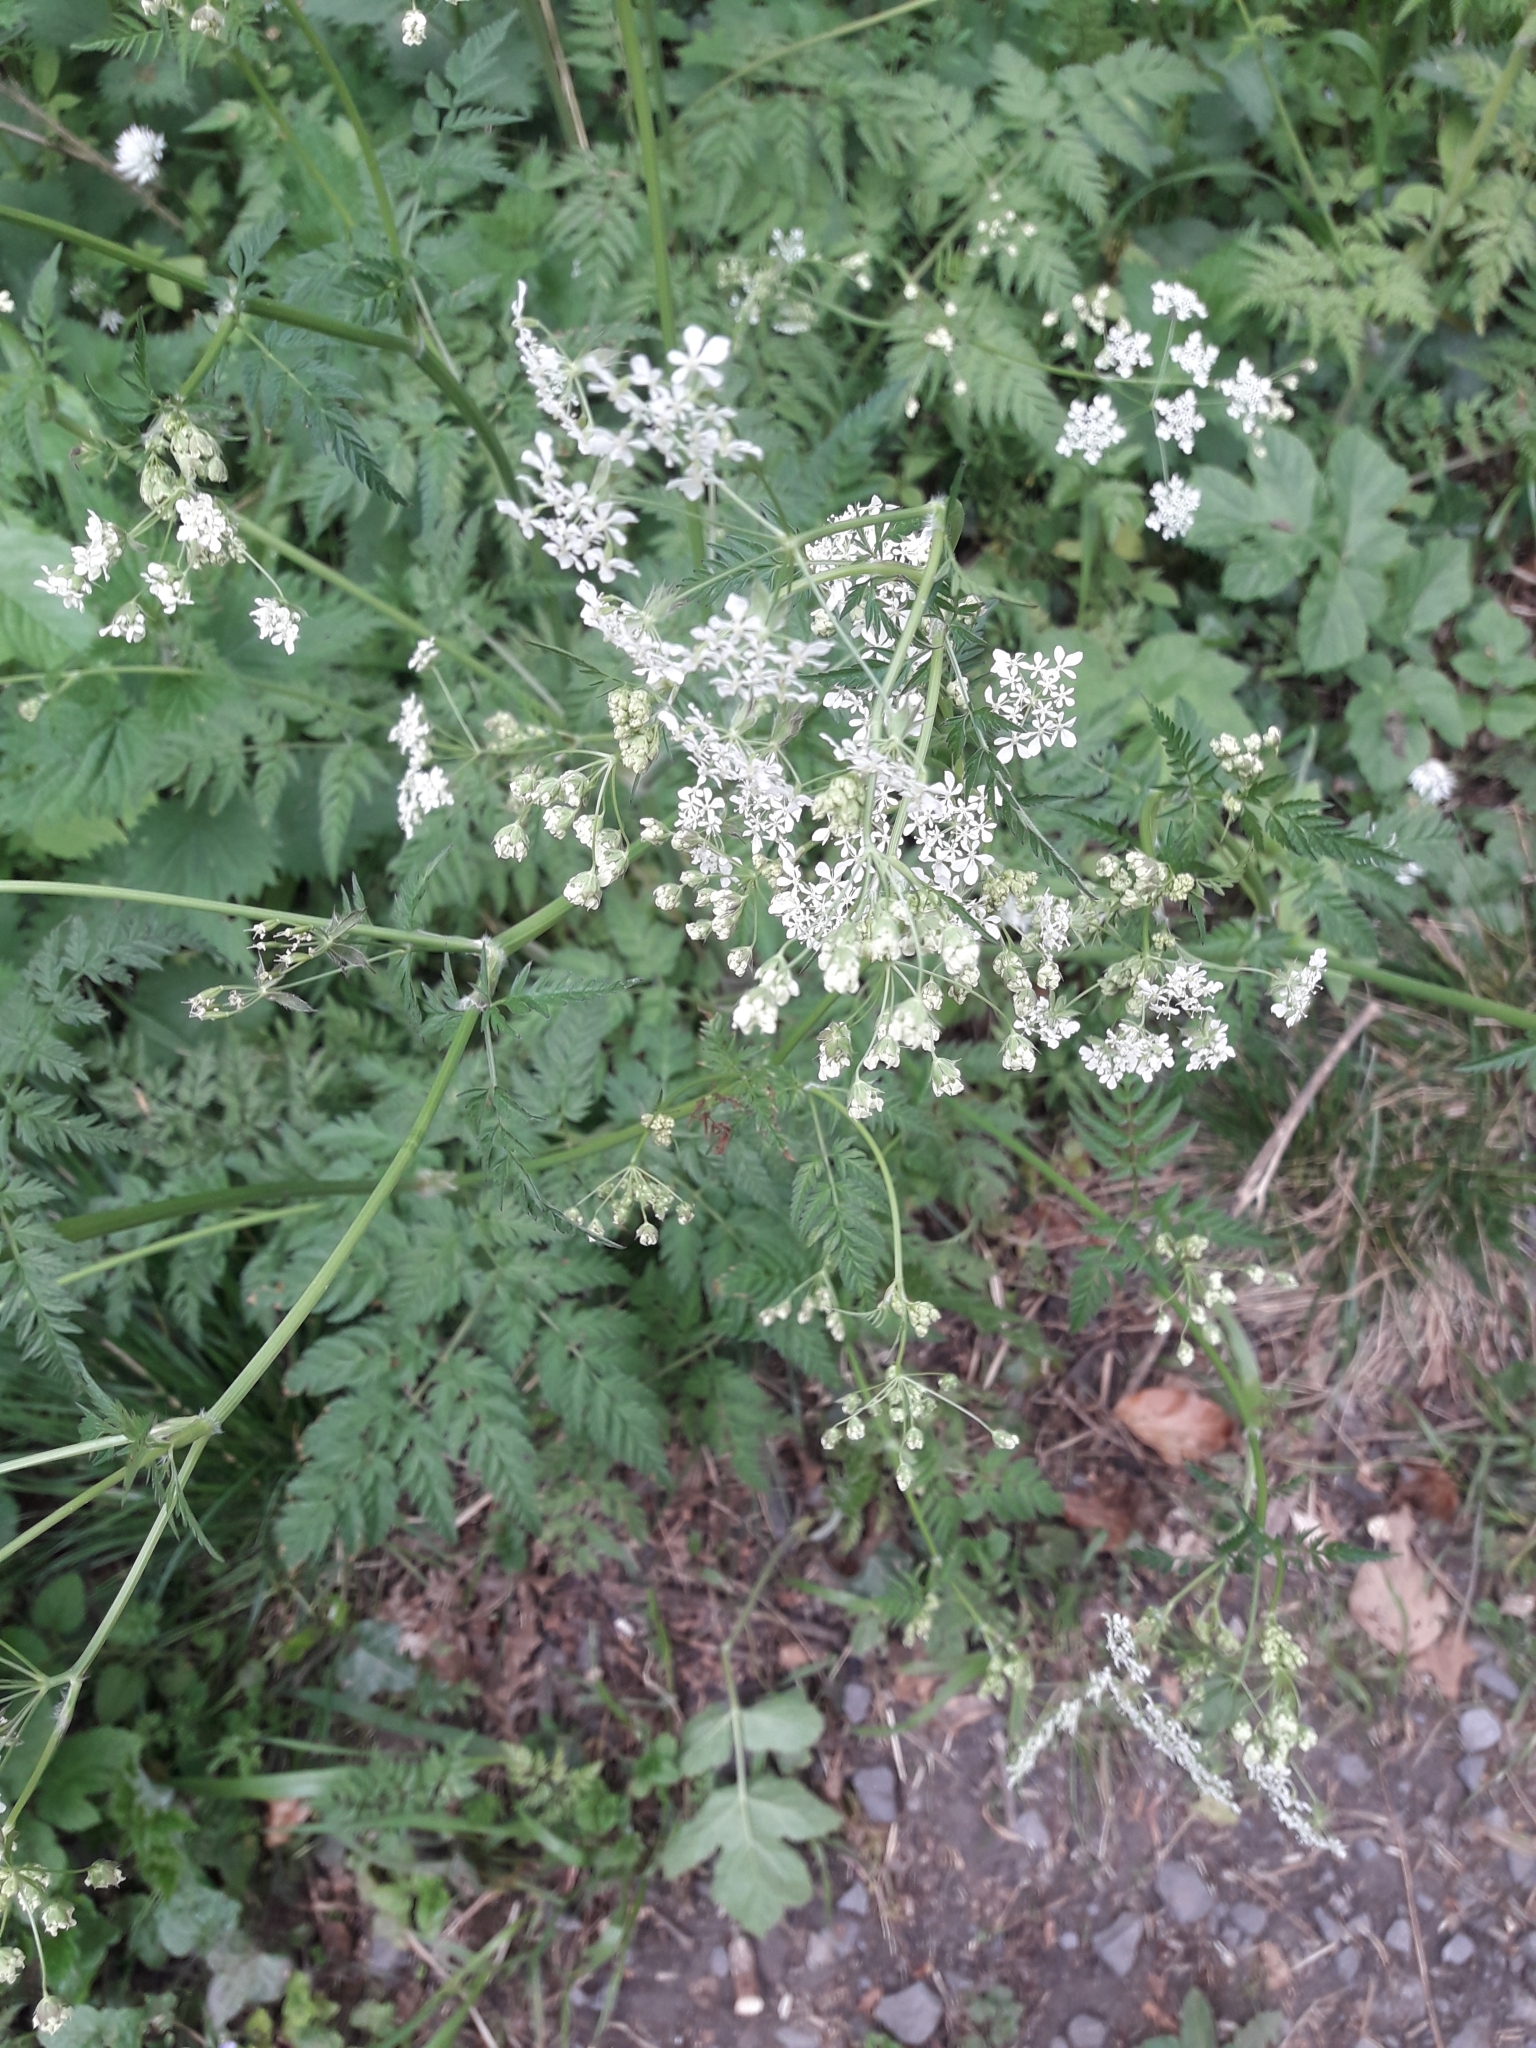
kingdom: Plantae
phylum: Tracheophyta
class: Magnoliopsida
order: Apiales
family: Apiaceae
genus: Anthriscus
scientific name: Anthriscus sylvestris
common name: Cow parsley
